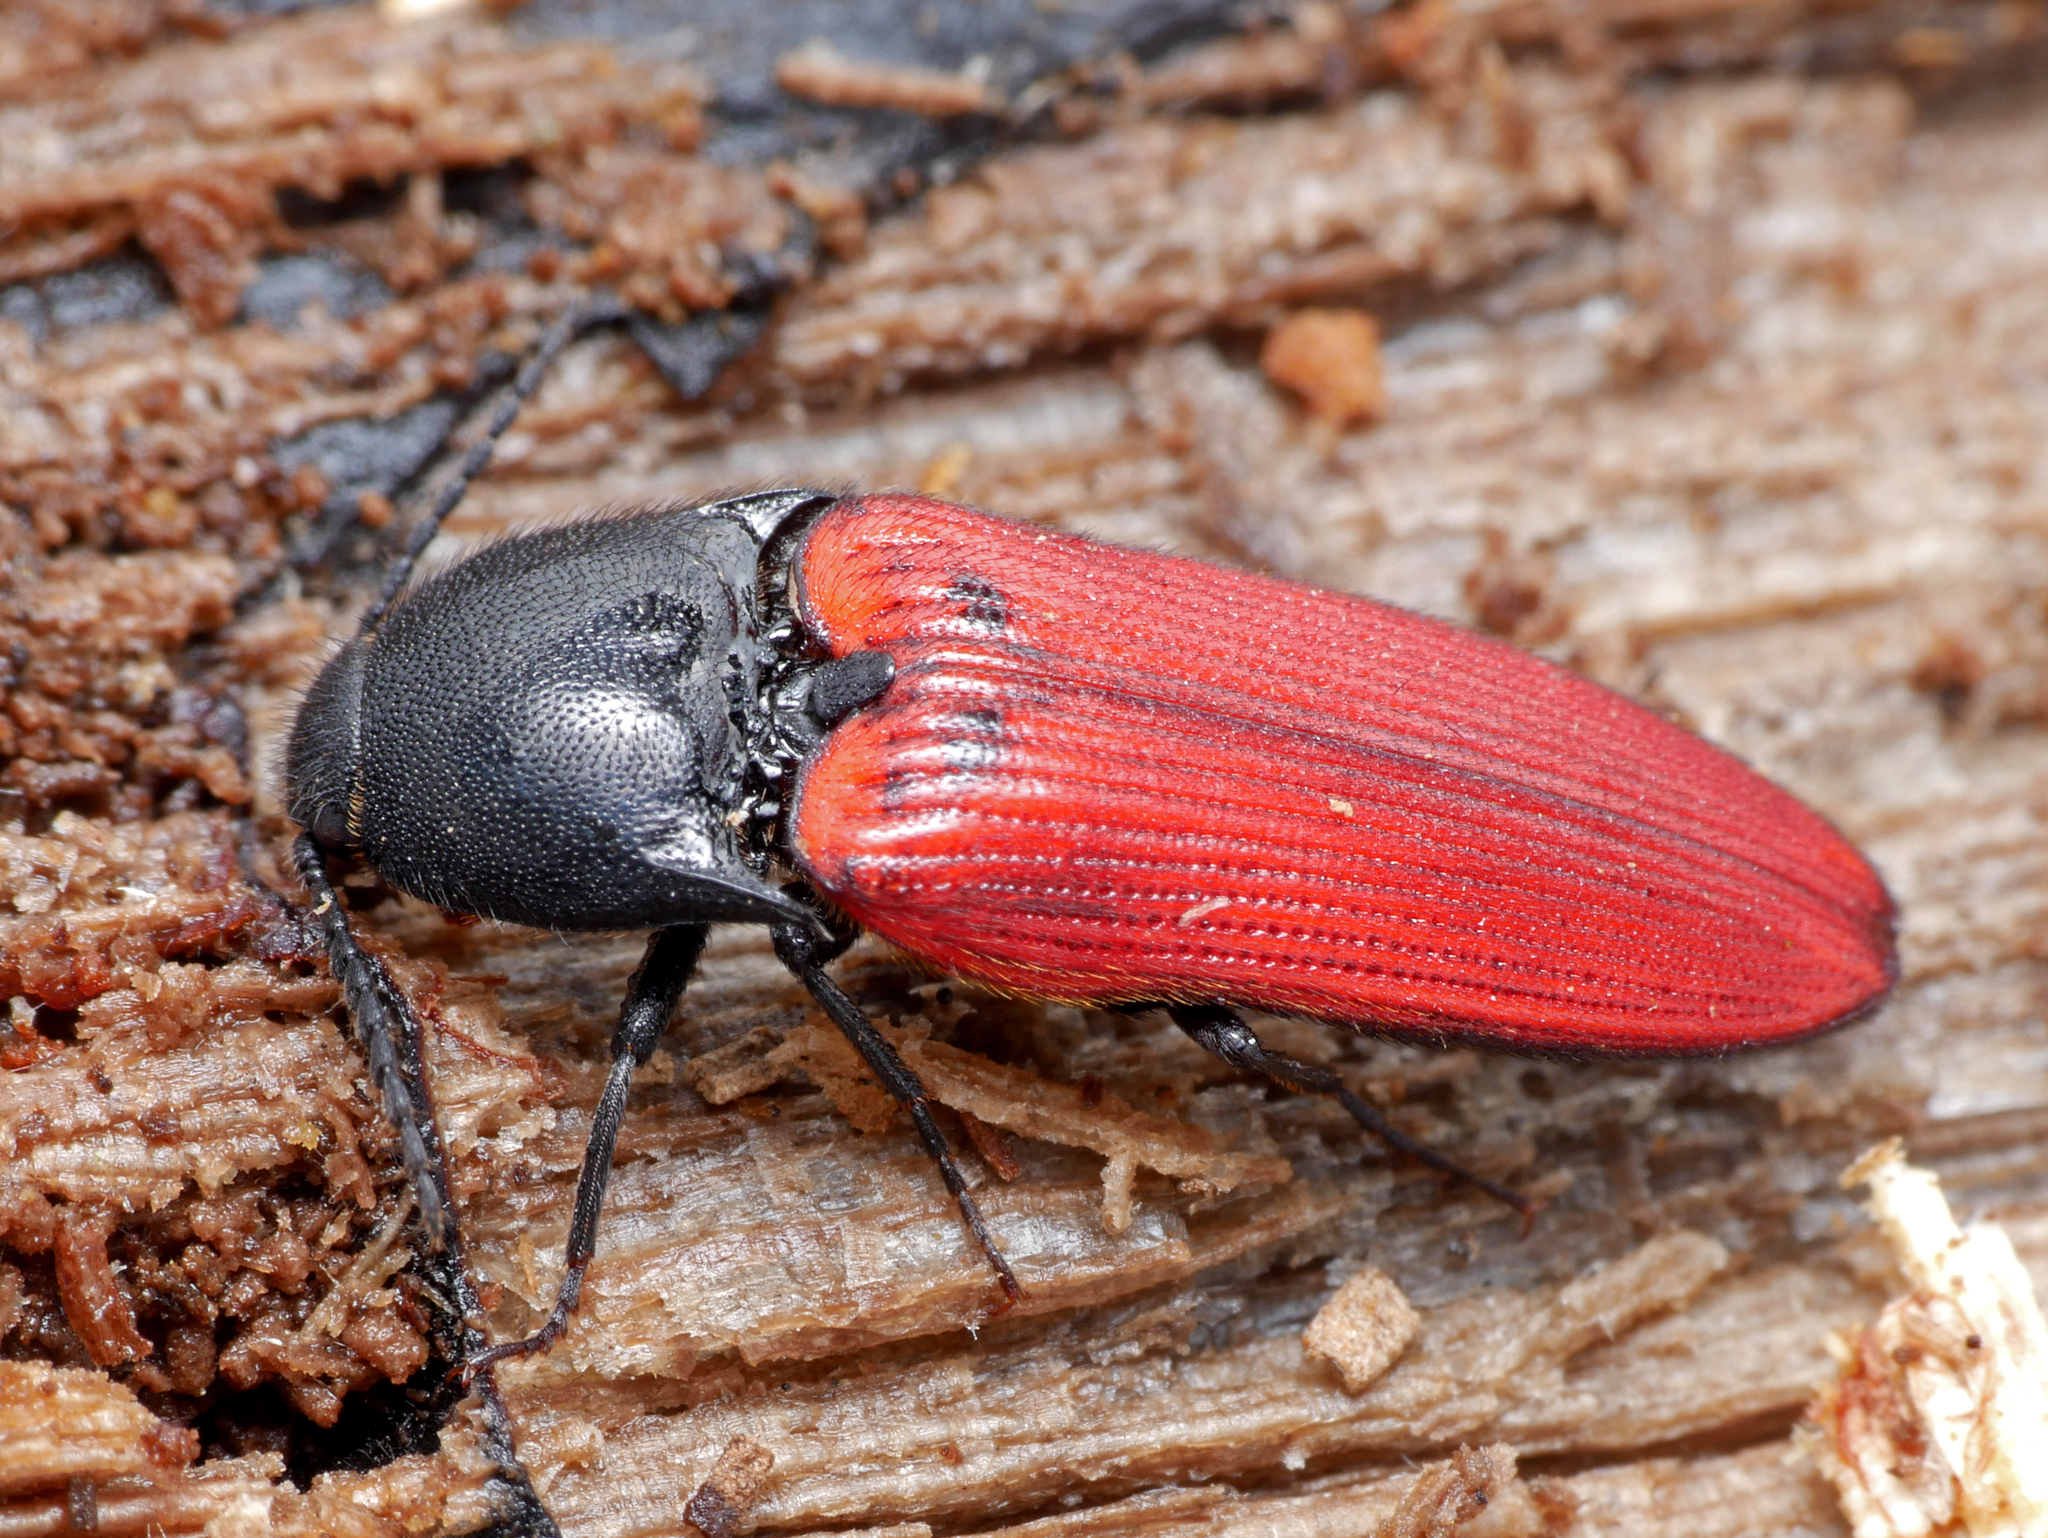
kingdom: Animalia
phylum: Arthropoda
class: Insecta
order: Coleoptera
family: Elateridae
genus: Ampedus
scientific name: Ampedus rufipennis
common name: Red-horned cardinal click beetle
